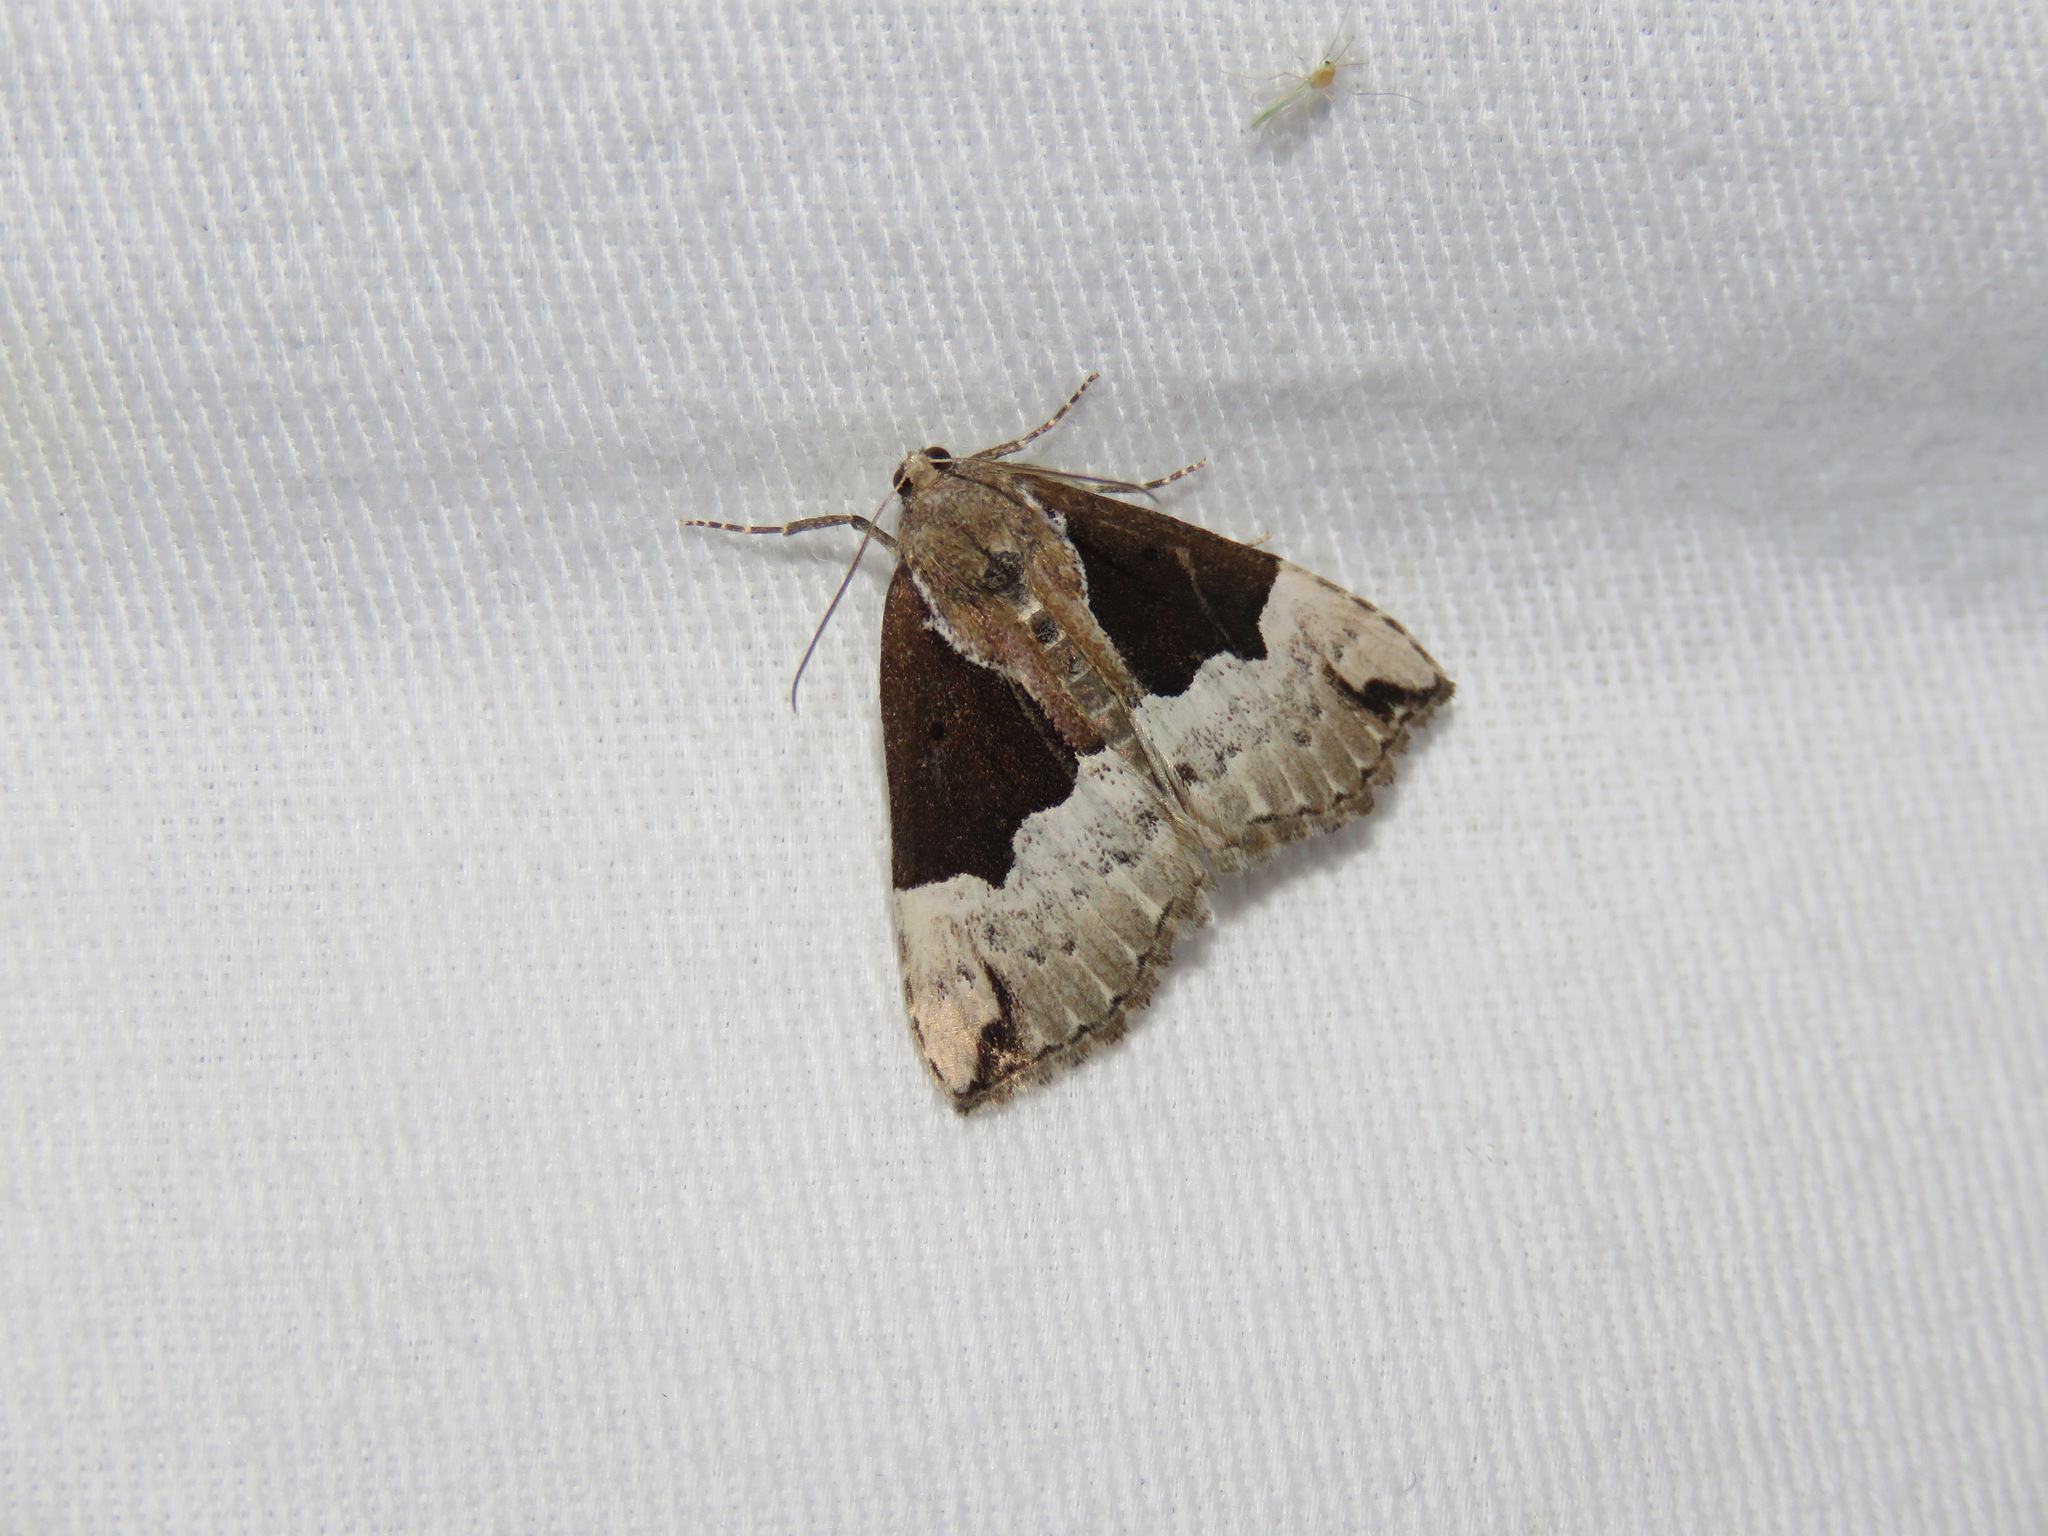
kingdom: Animalia
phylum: Arthropoda
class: Insecta
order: Lepidoptera
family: Erebidae
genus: Hypena
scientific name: Hypena bijugalis
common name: Dimorphic bomolocha moth
